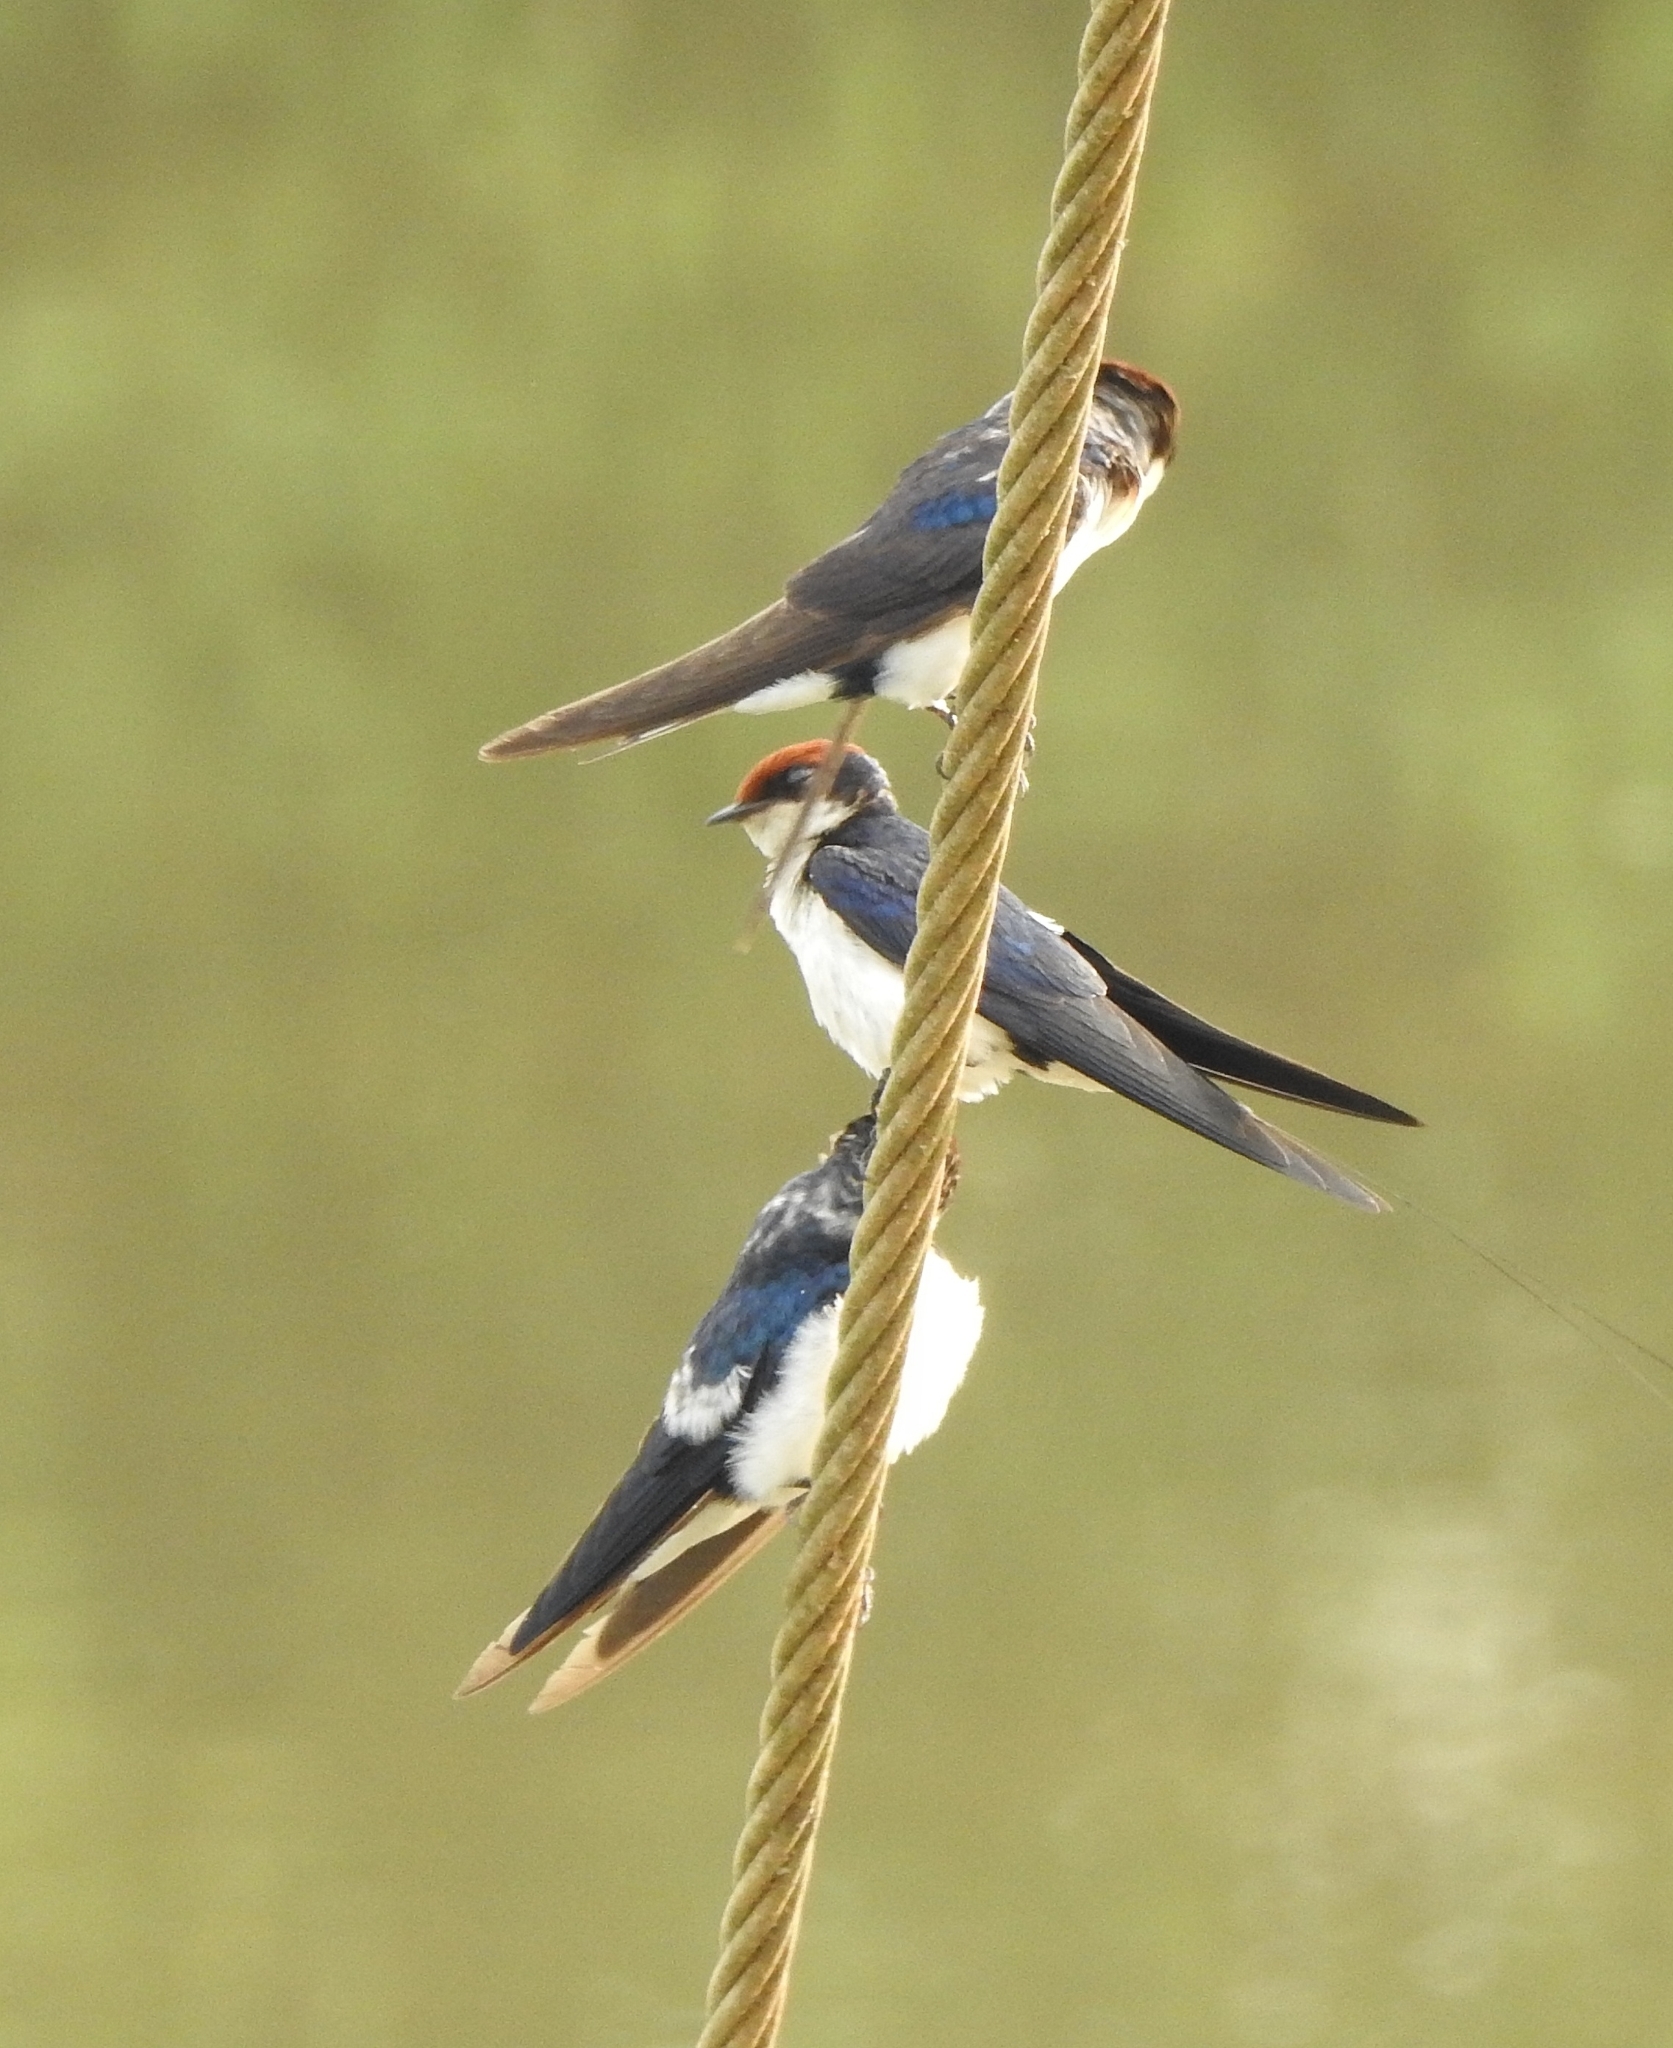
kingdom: Animalia
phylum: Chordata
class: Aves
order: Passeriformes
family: Hirundinidae
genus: Hirundo
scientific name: Hirundo smithii
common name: Wire-tailed swallow
